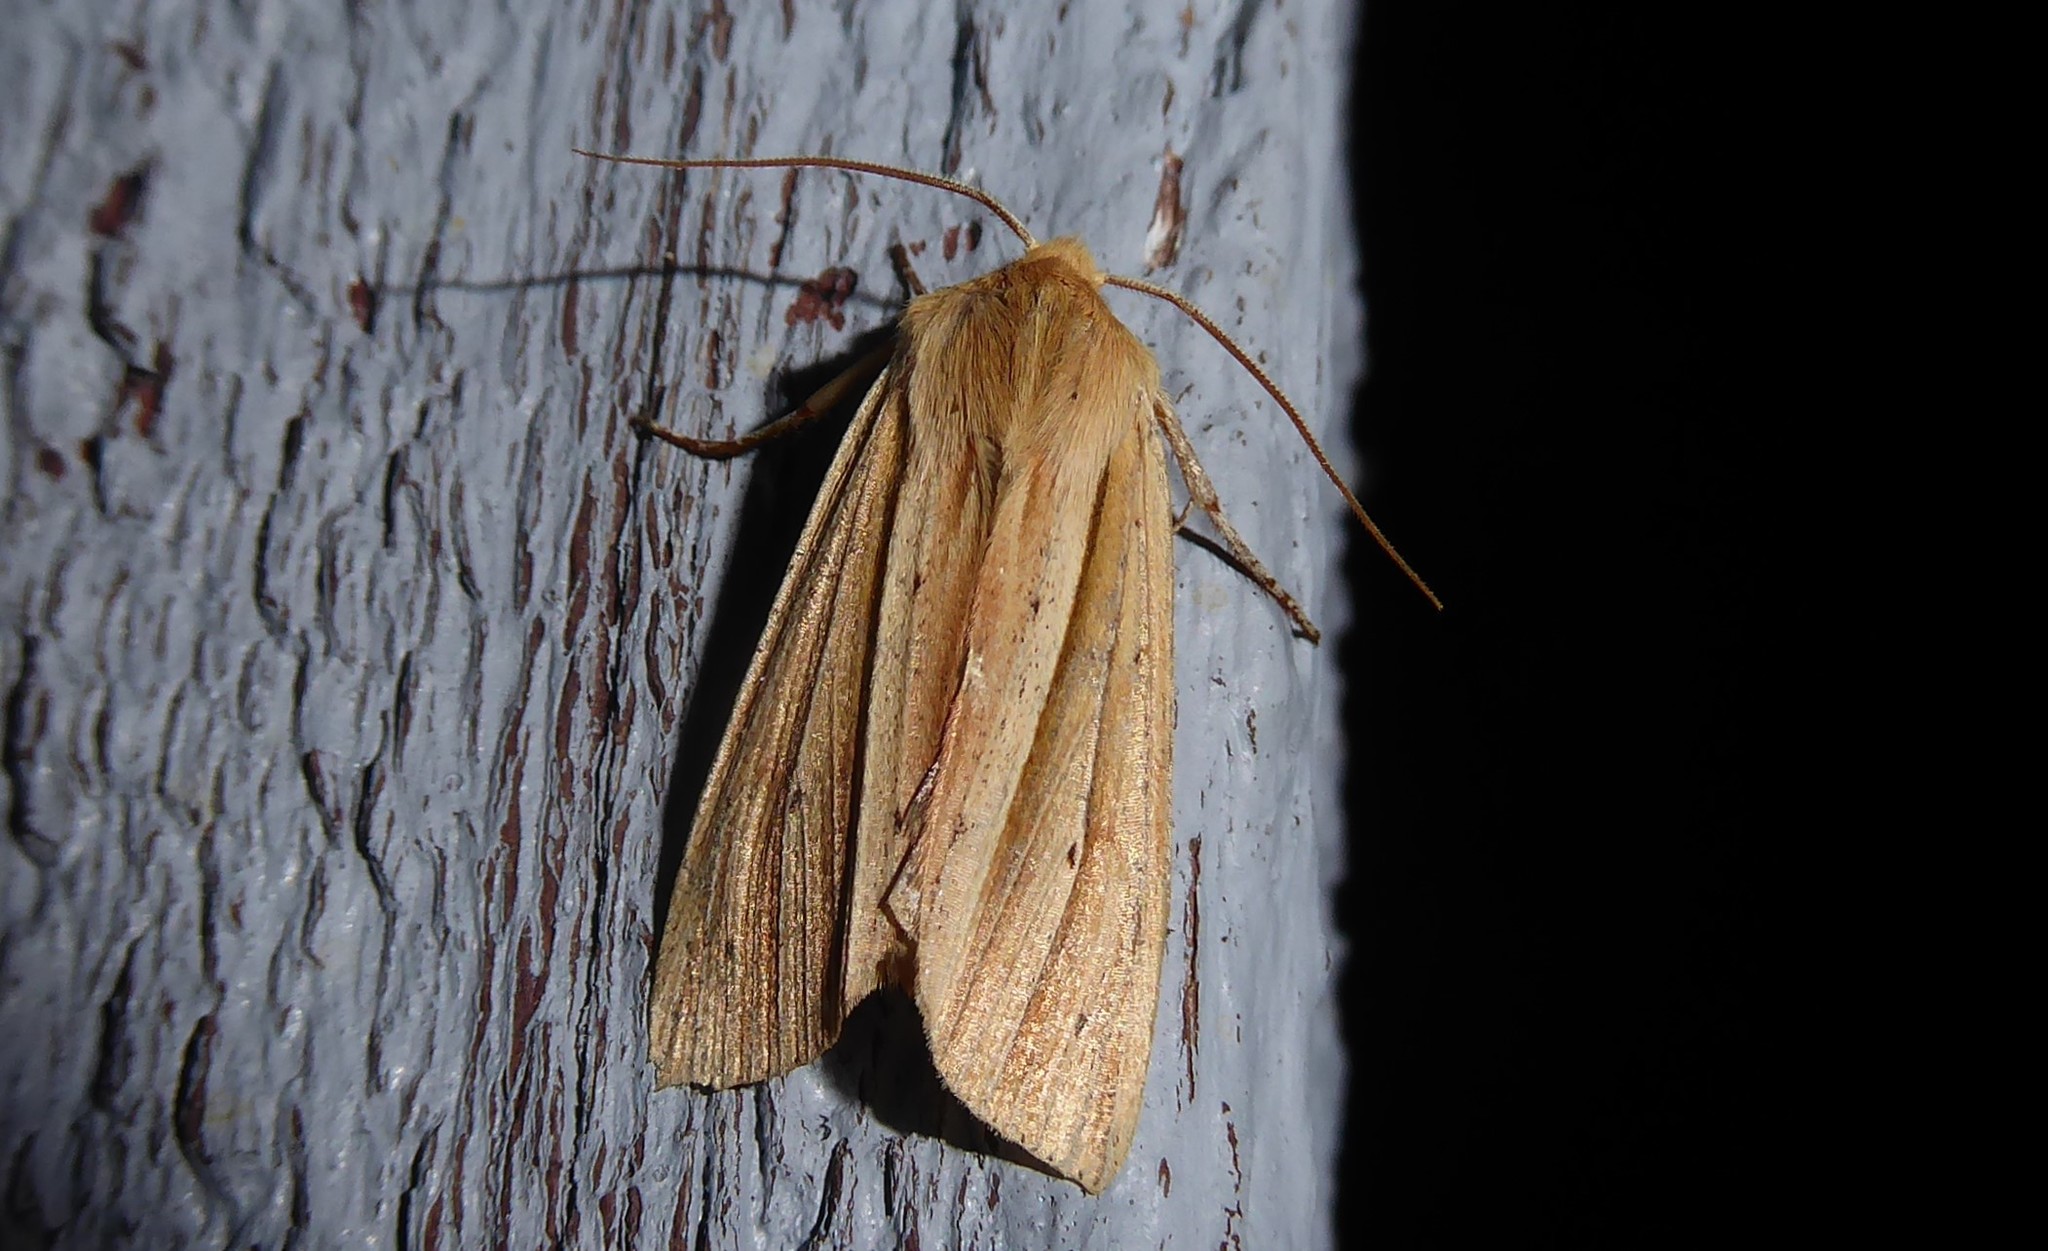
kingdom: Animalia
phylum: Arthropoda
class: Insecta
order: Lepidoptera
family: Noctuidae
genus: Ichneutica
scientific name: Ichneutica sulcana
